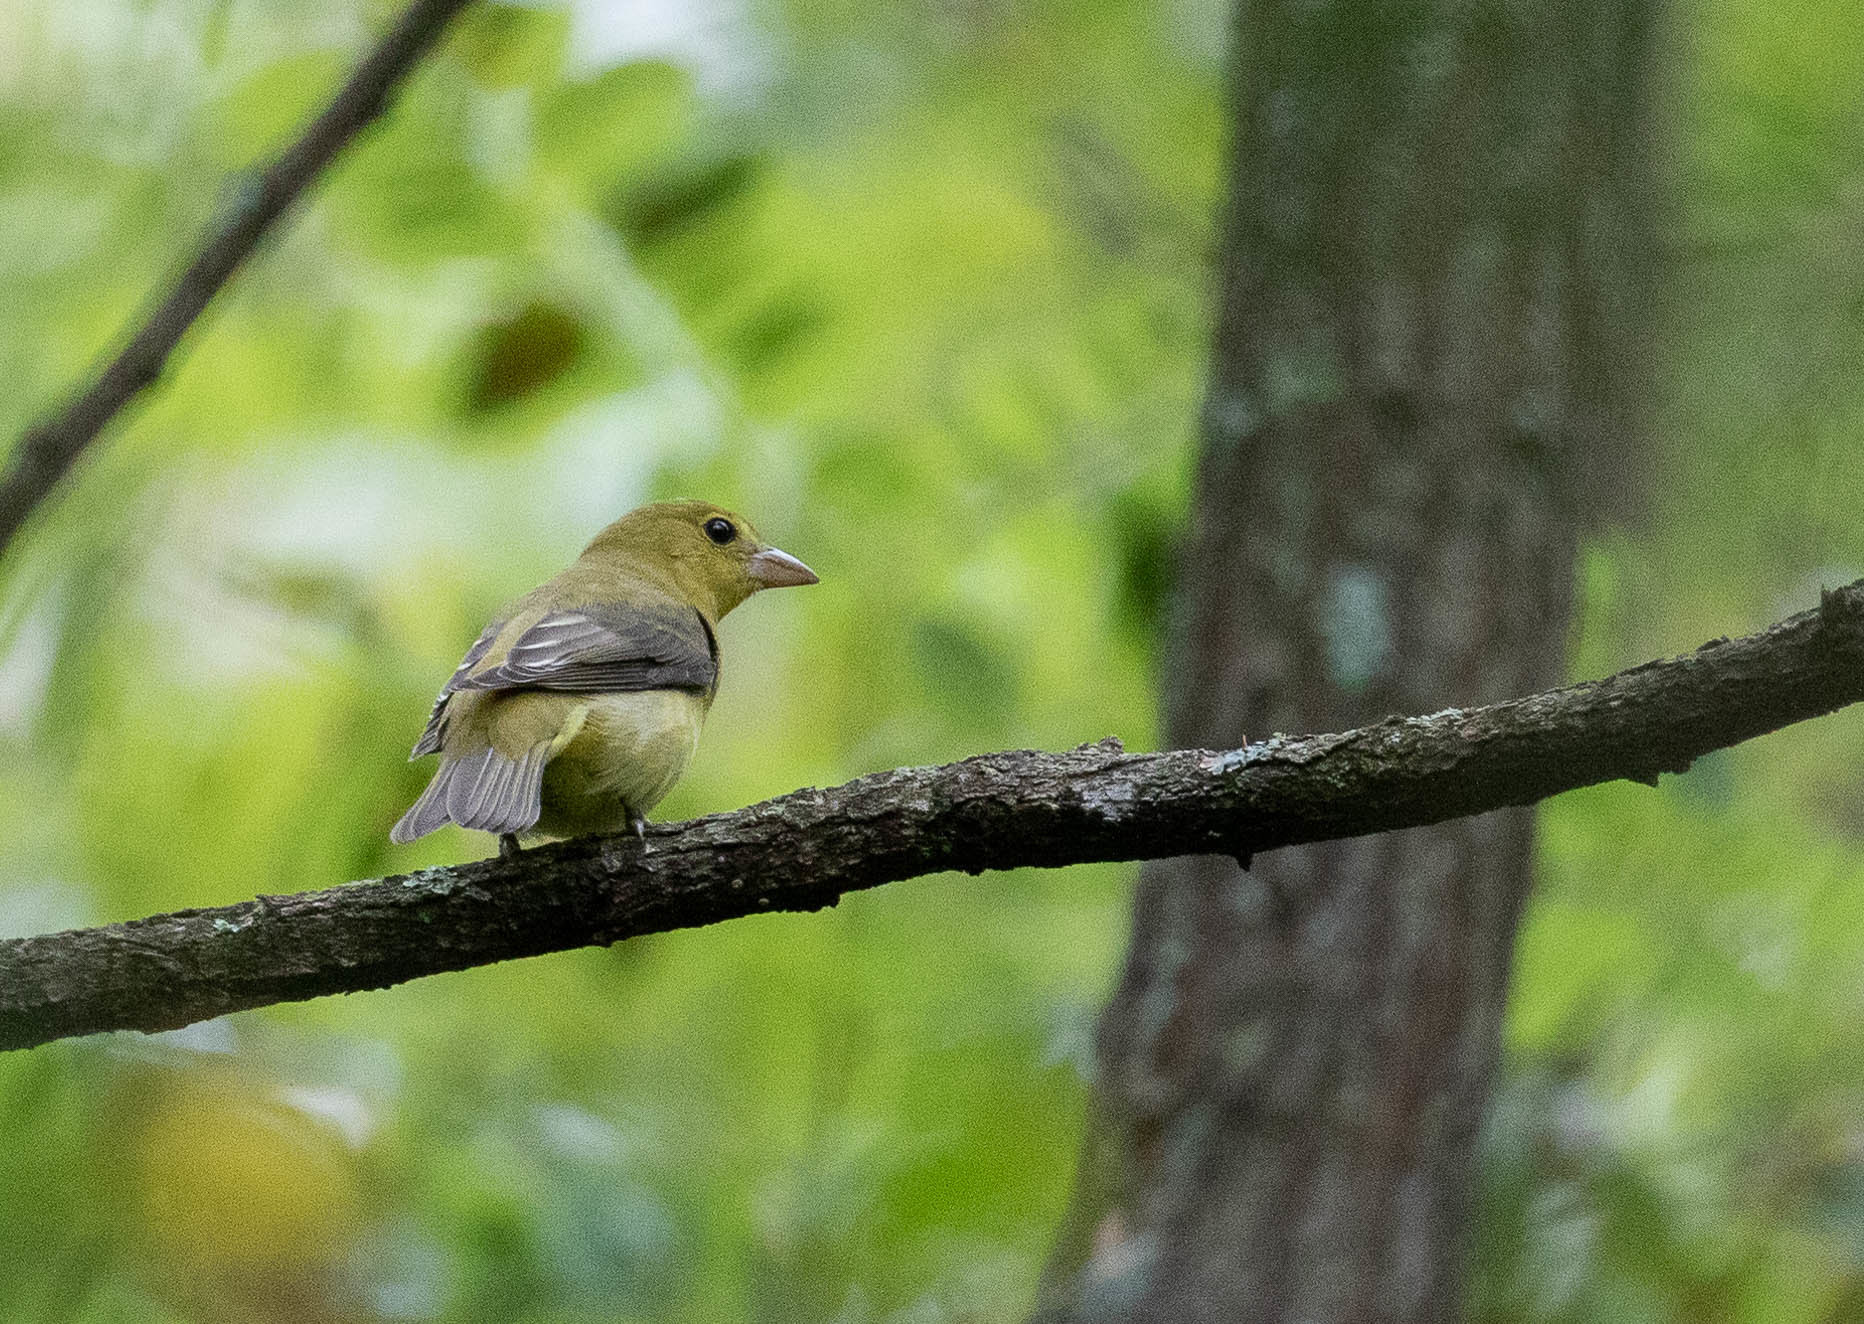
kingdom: Animalia
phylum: Chordata
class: Aves
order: Passeriformes
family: Cardinalidae
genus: Piranga
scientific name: Piranga olivacea
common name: Scarlet tanager
